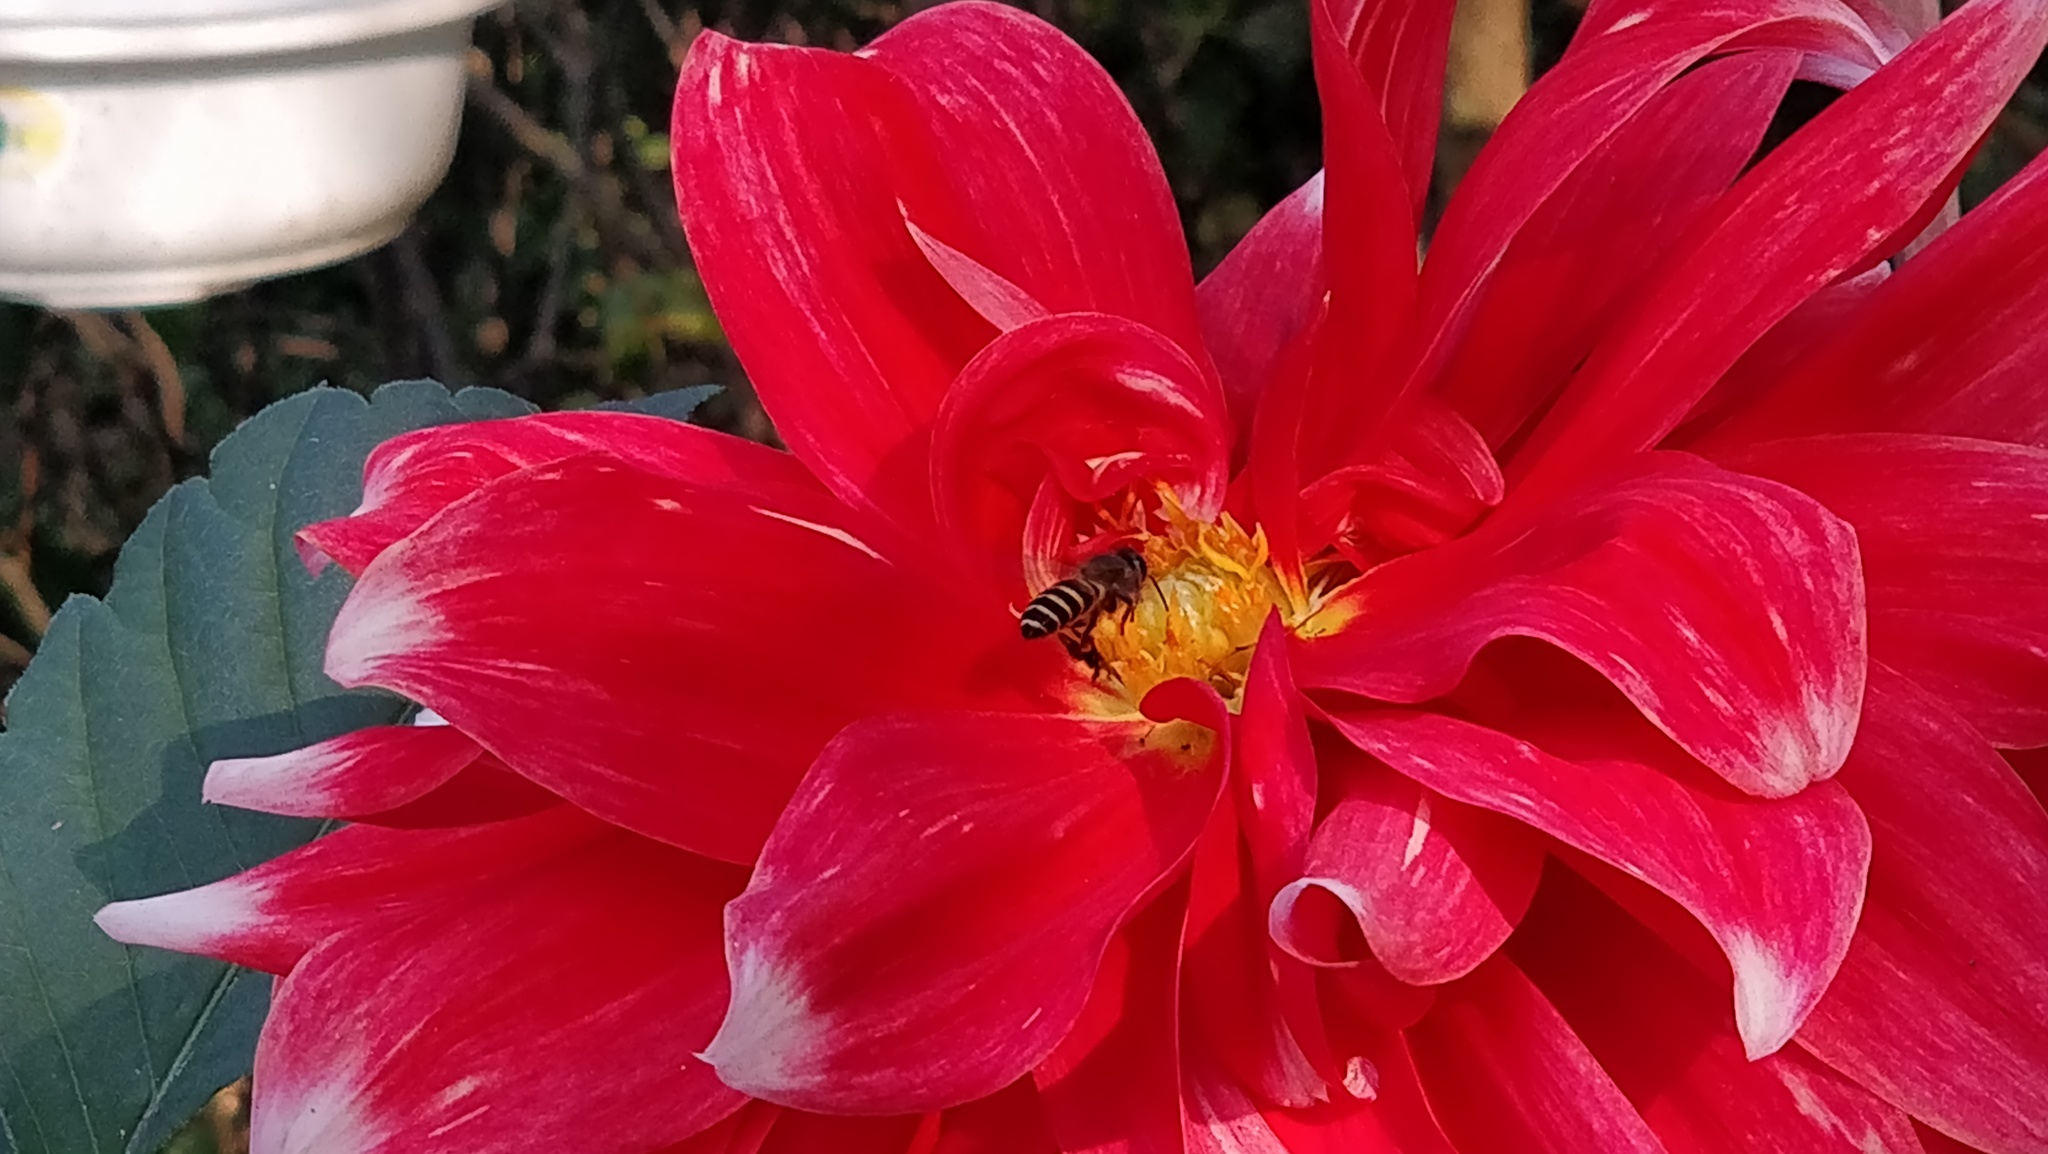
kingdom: Animalia
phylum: Arthropoda
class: Insecta
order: Hymenoptera
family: Apidae
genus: Apis
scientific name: Apis cerana
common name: Honey bee
